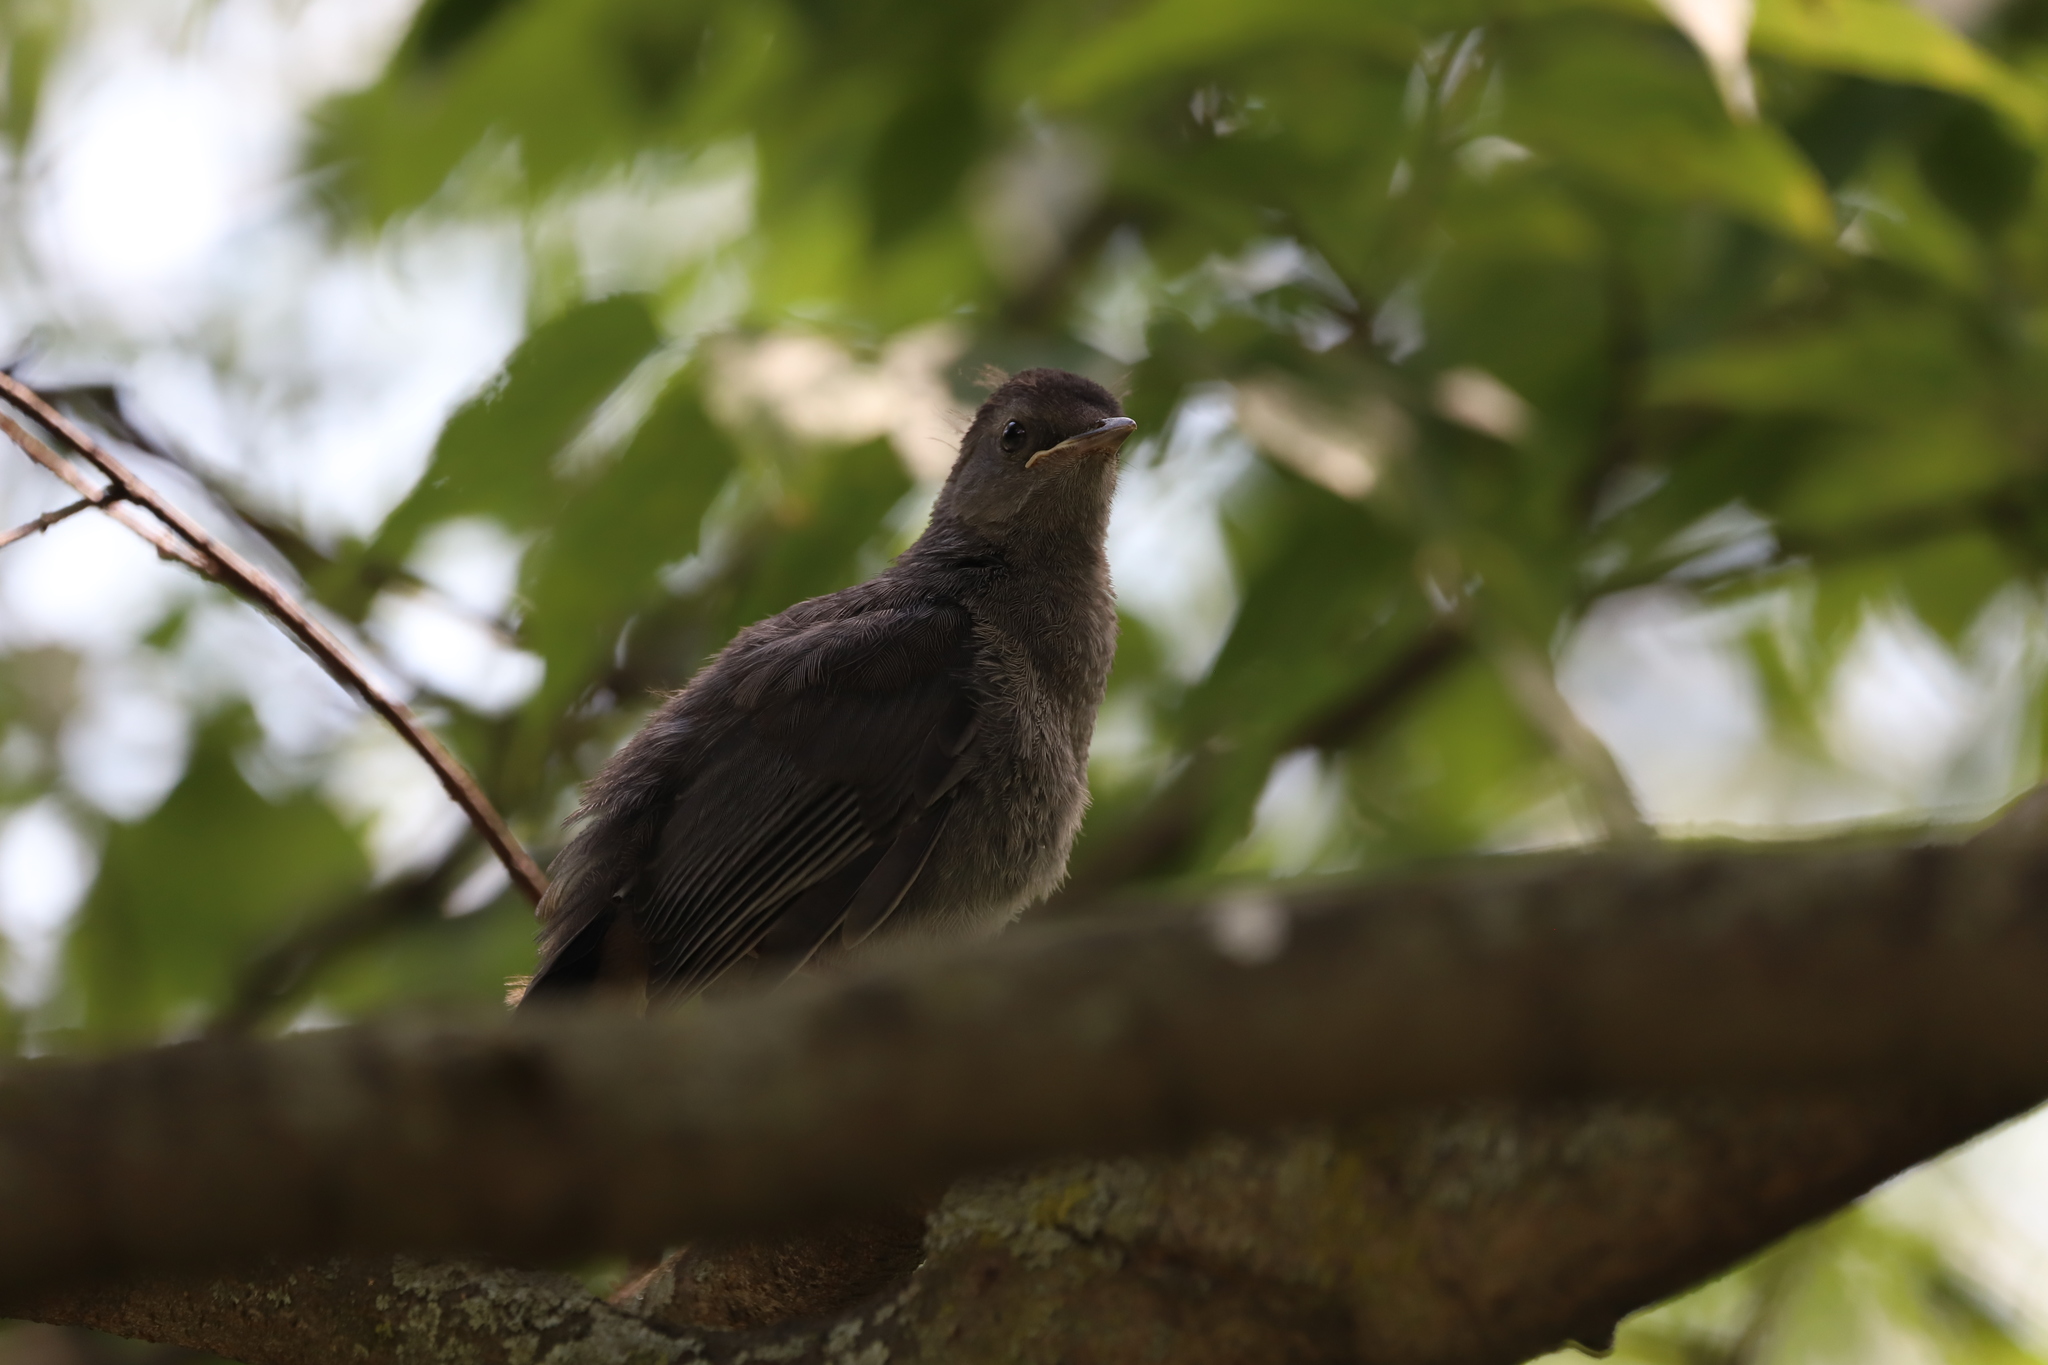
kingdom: Animalia
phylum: Chordata
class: Aves
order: Passeriformes
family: Mimidae
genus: Dumetella
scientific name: Dumetella carolinensis
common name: Gray catbird
